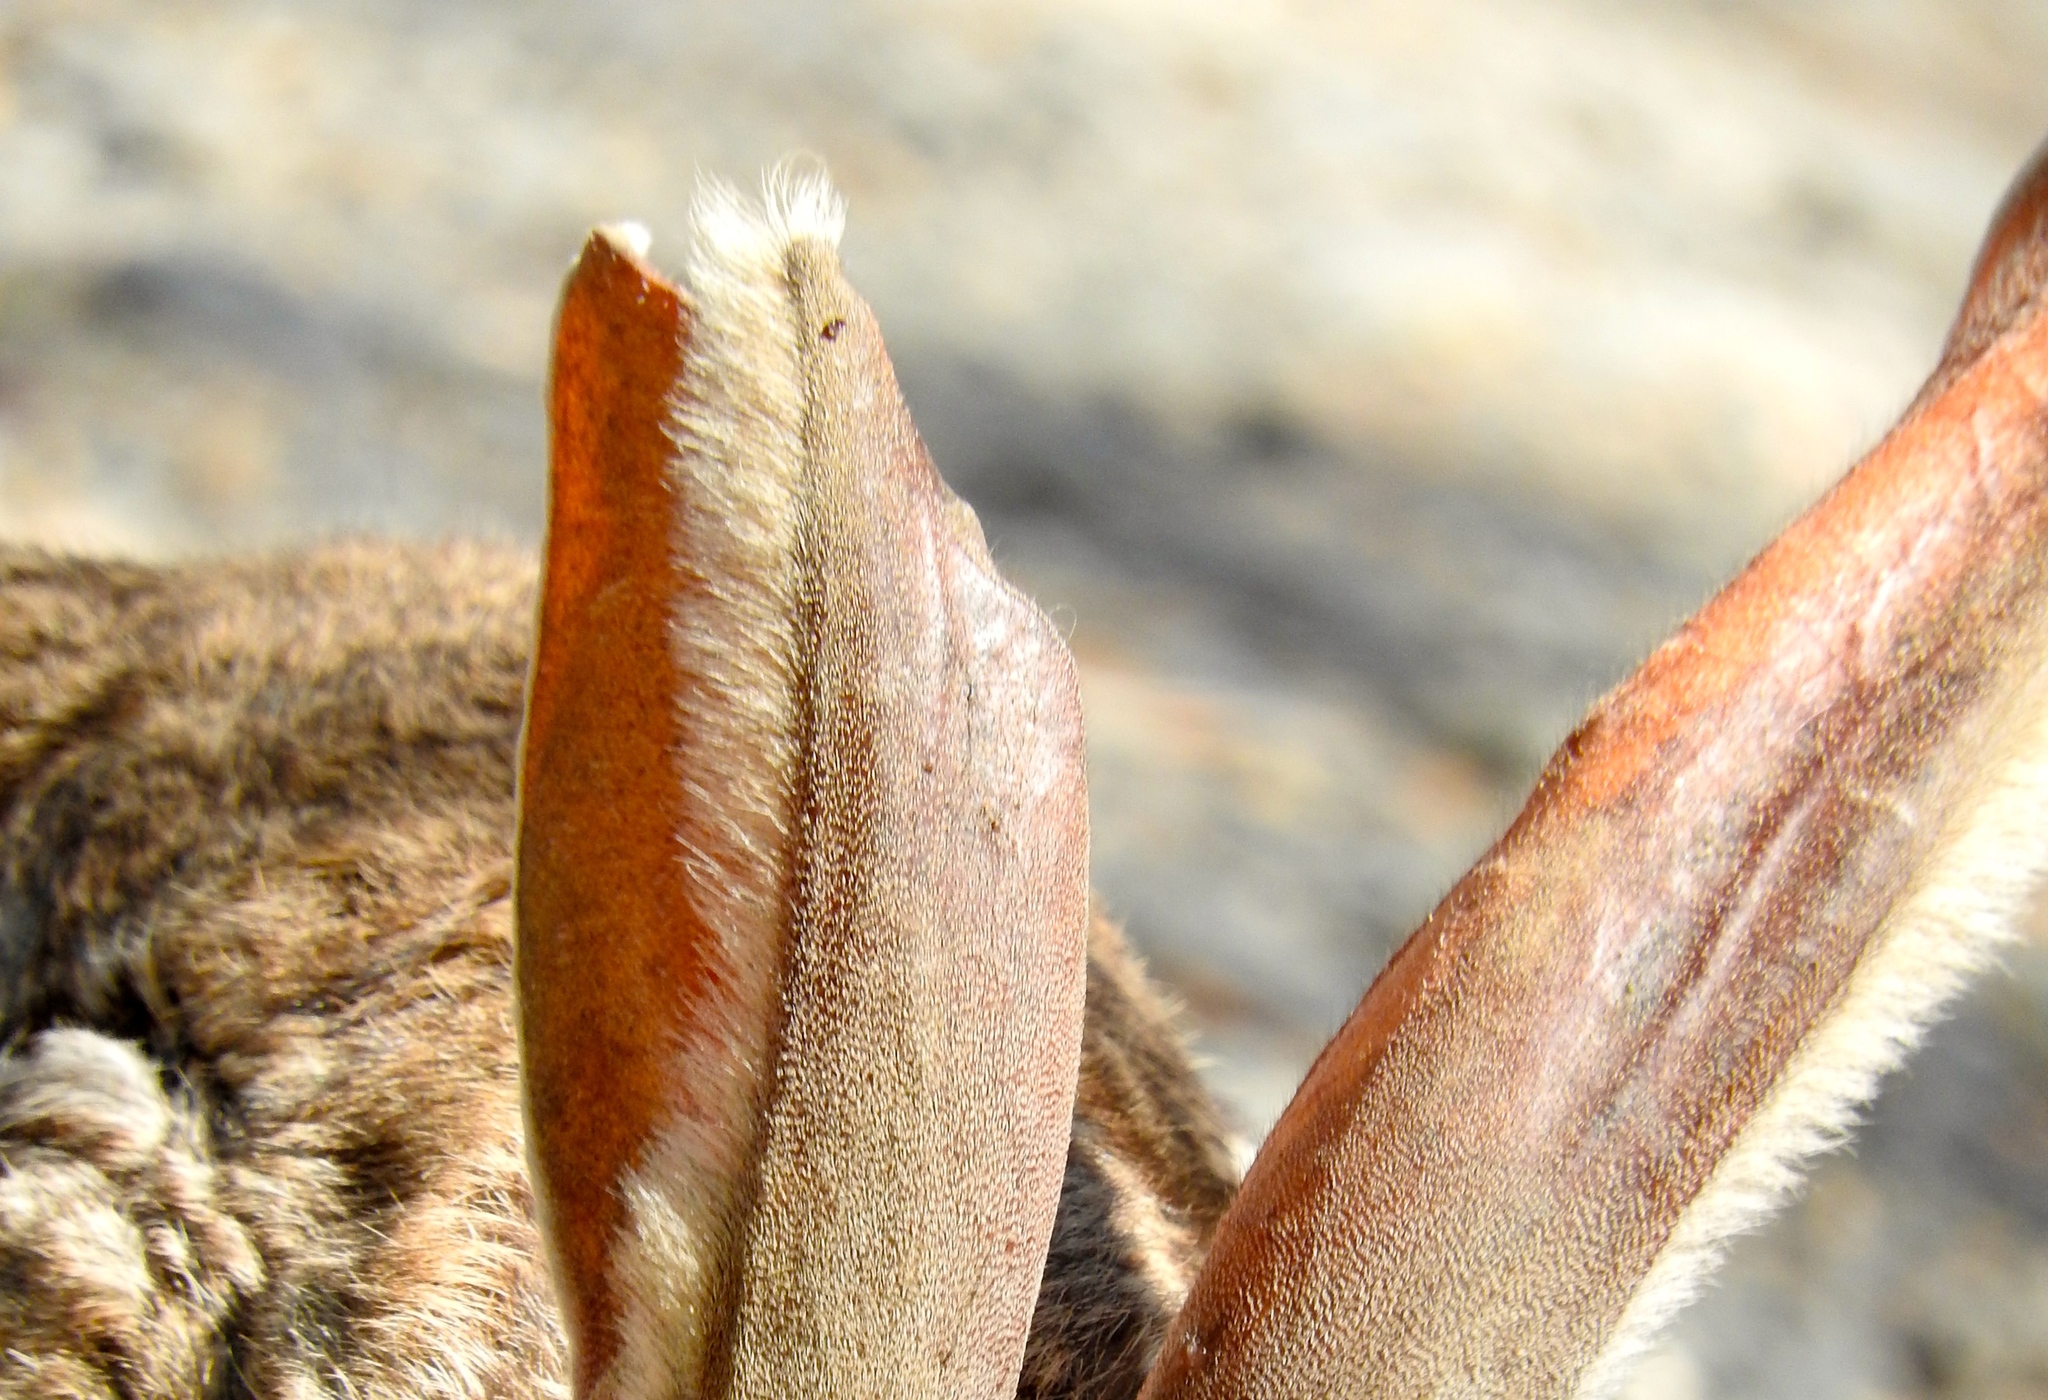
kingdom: Animalia
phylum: Chordata
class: Mammalia
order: Lagomorpha
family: Leporidae
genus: Lepus
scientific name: Lepus alleni
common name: Antelope jackrabbit
